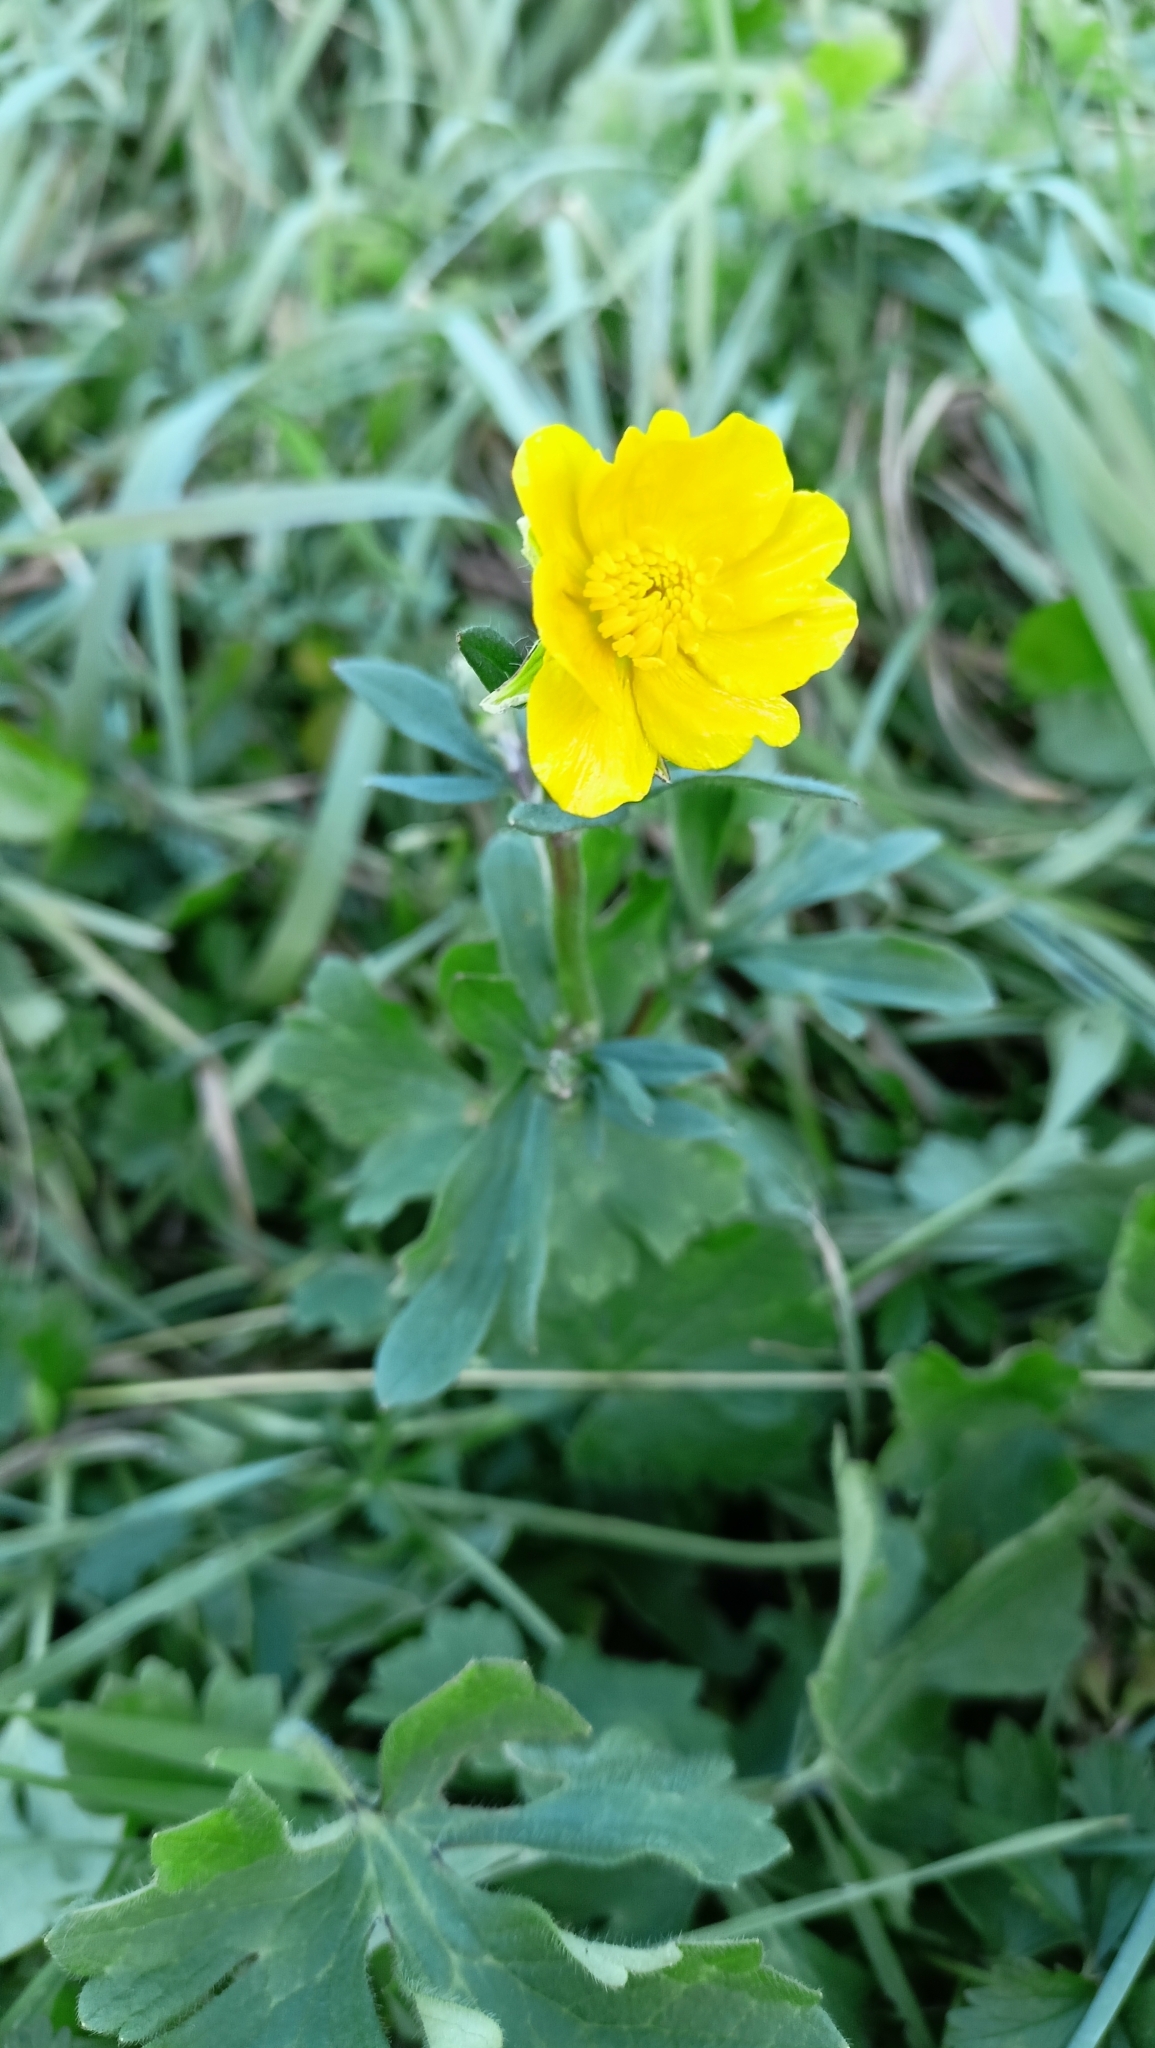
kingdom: Plantae
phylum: Tracheophyta
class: Magnoliopsida
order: Ranunculales
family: Ranunculaceae
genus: Ranunculus
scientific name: Ranunculus bulbosus
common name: Bulbous buttercup
